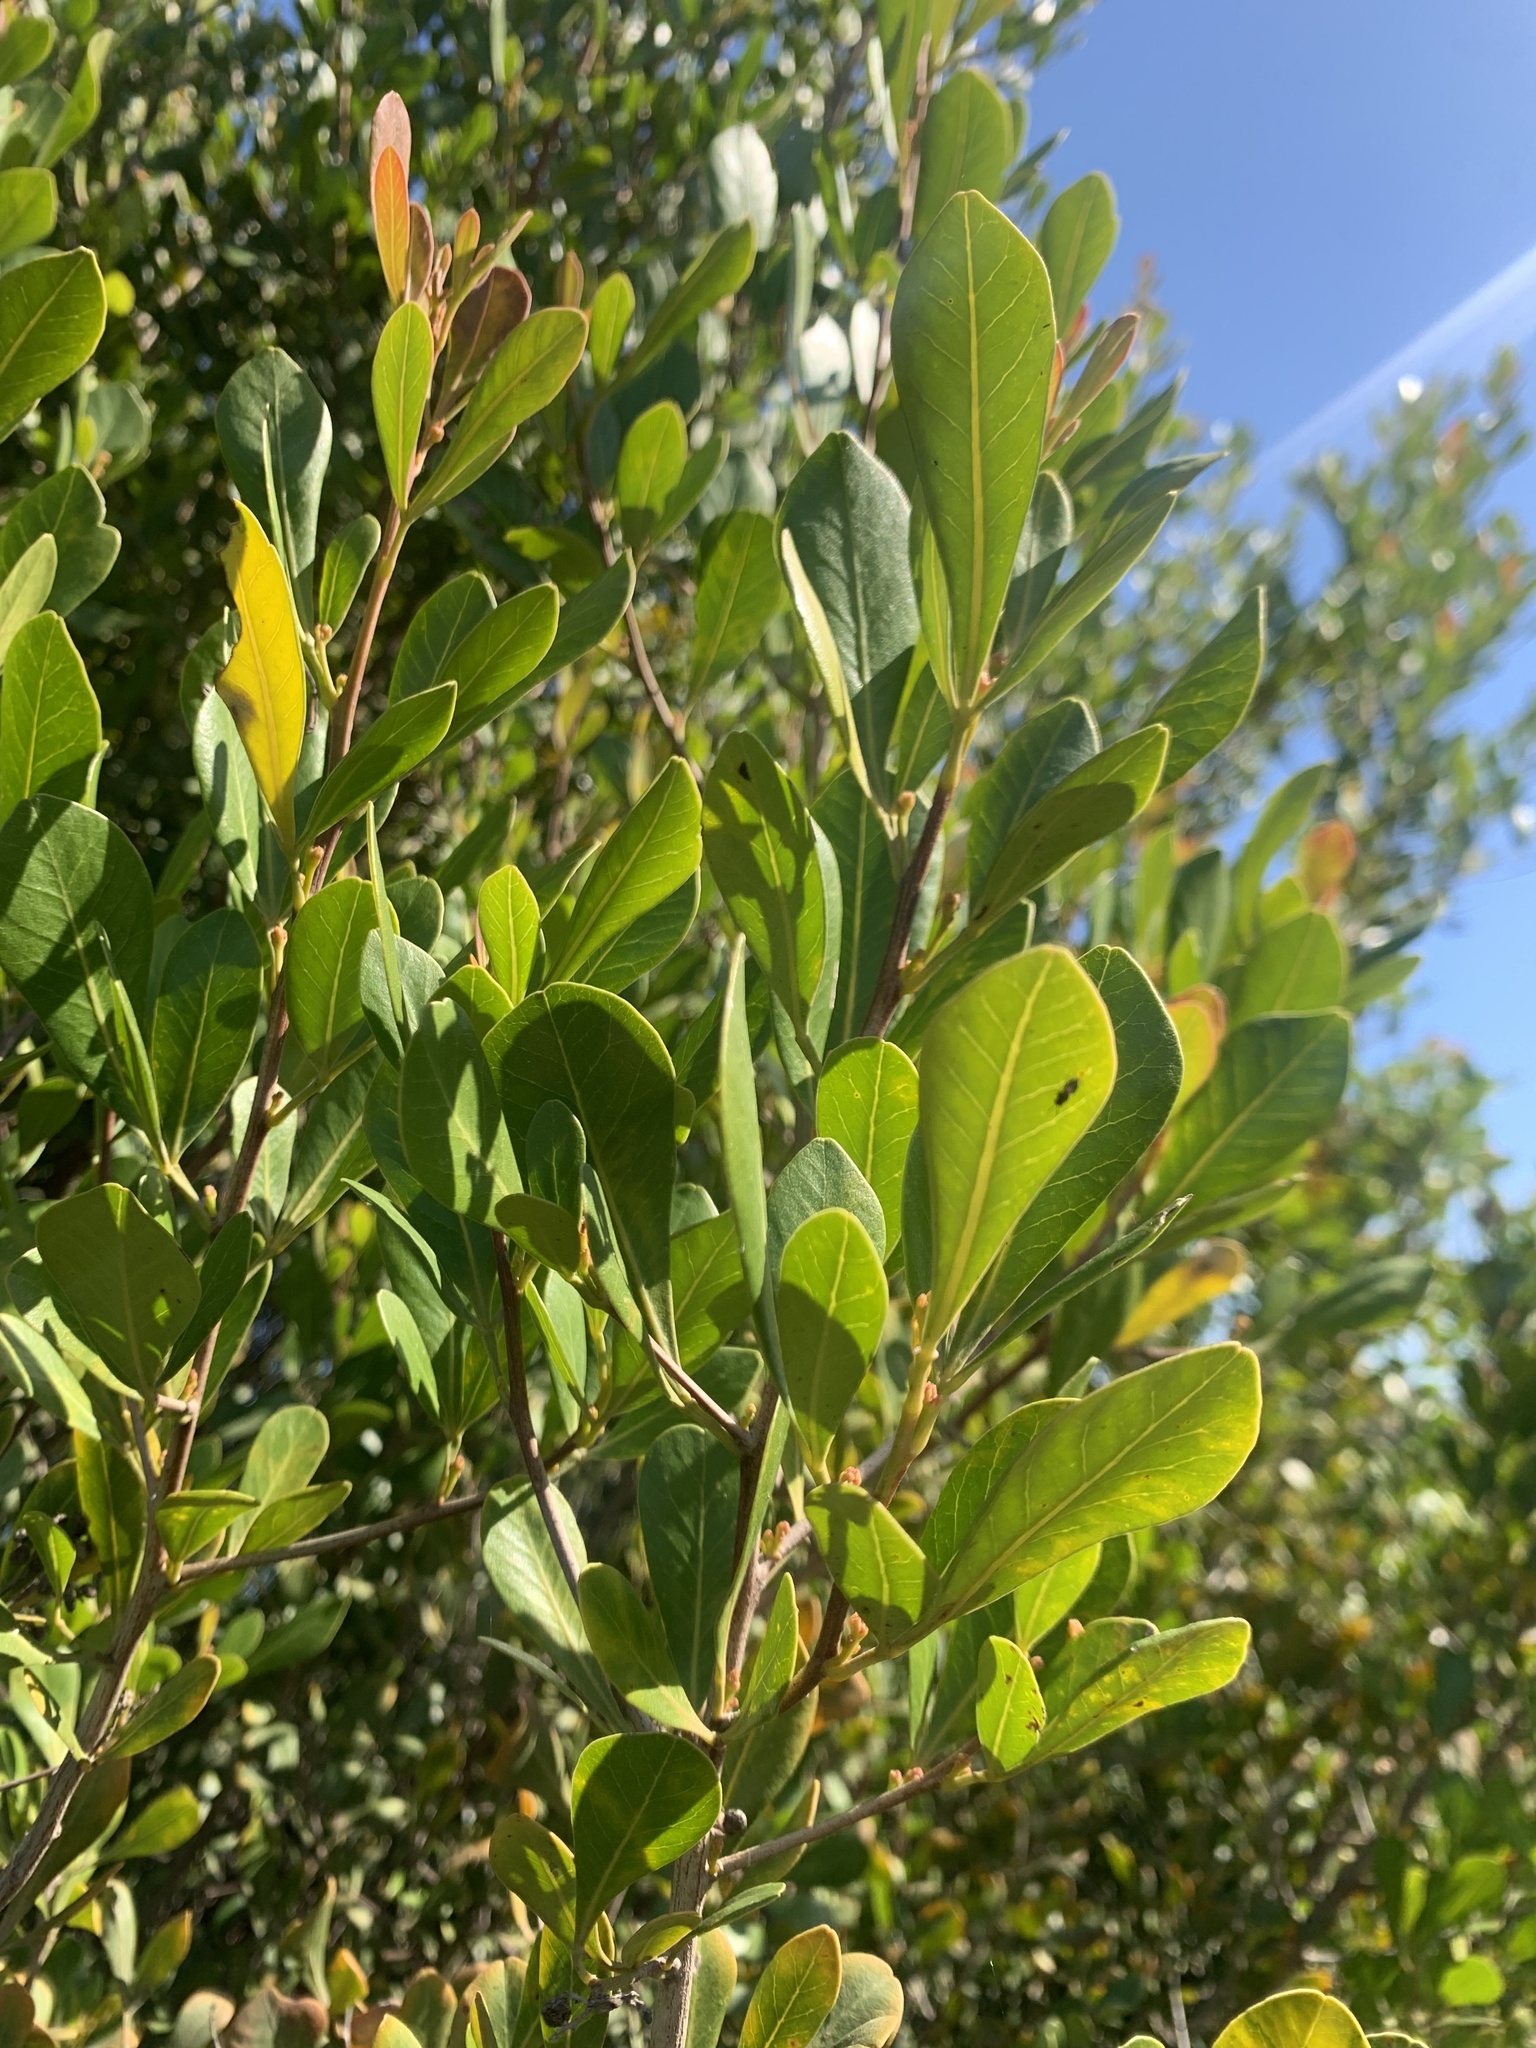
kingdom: Plantae
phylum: Tracheophyta
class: Magnoliopsida
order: Sapindales
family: Anacardiaceae
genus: Searsia
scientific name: Searsia lucida
